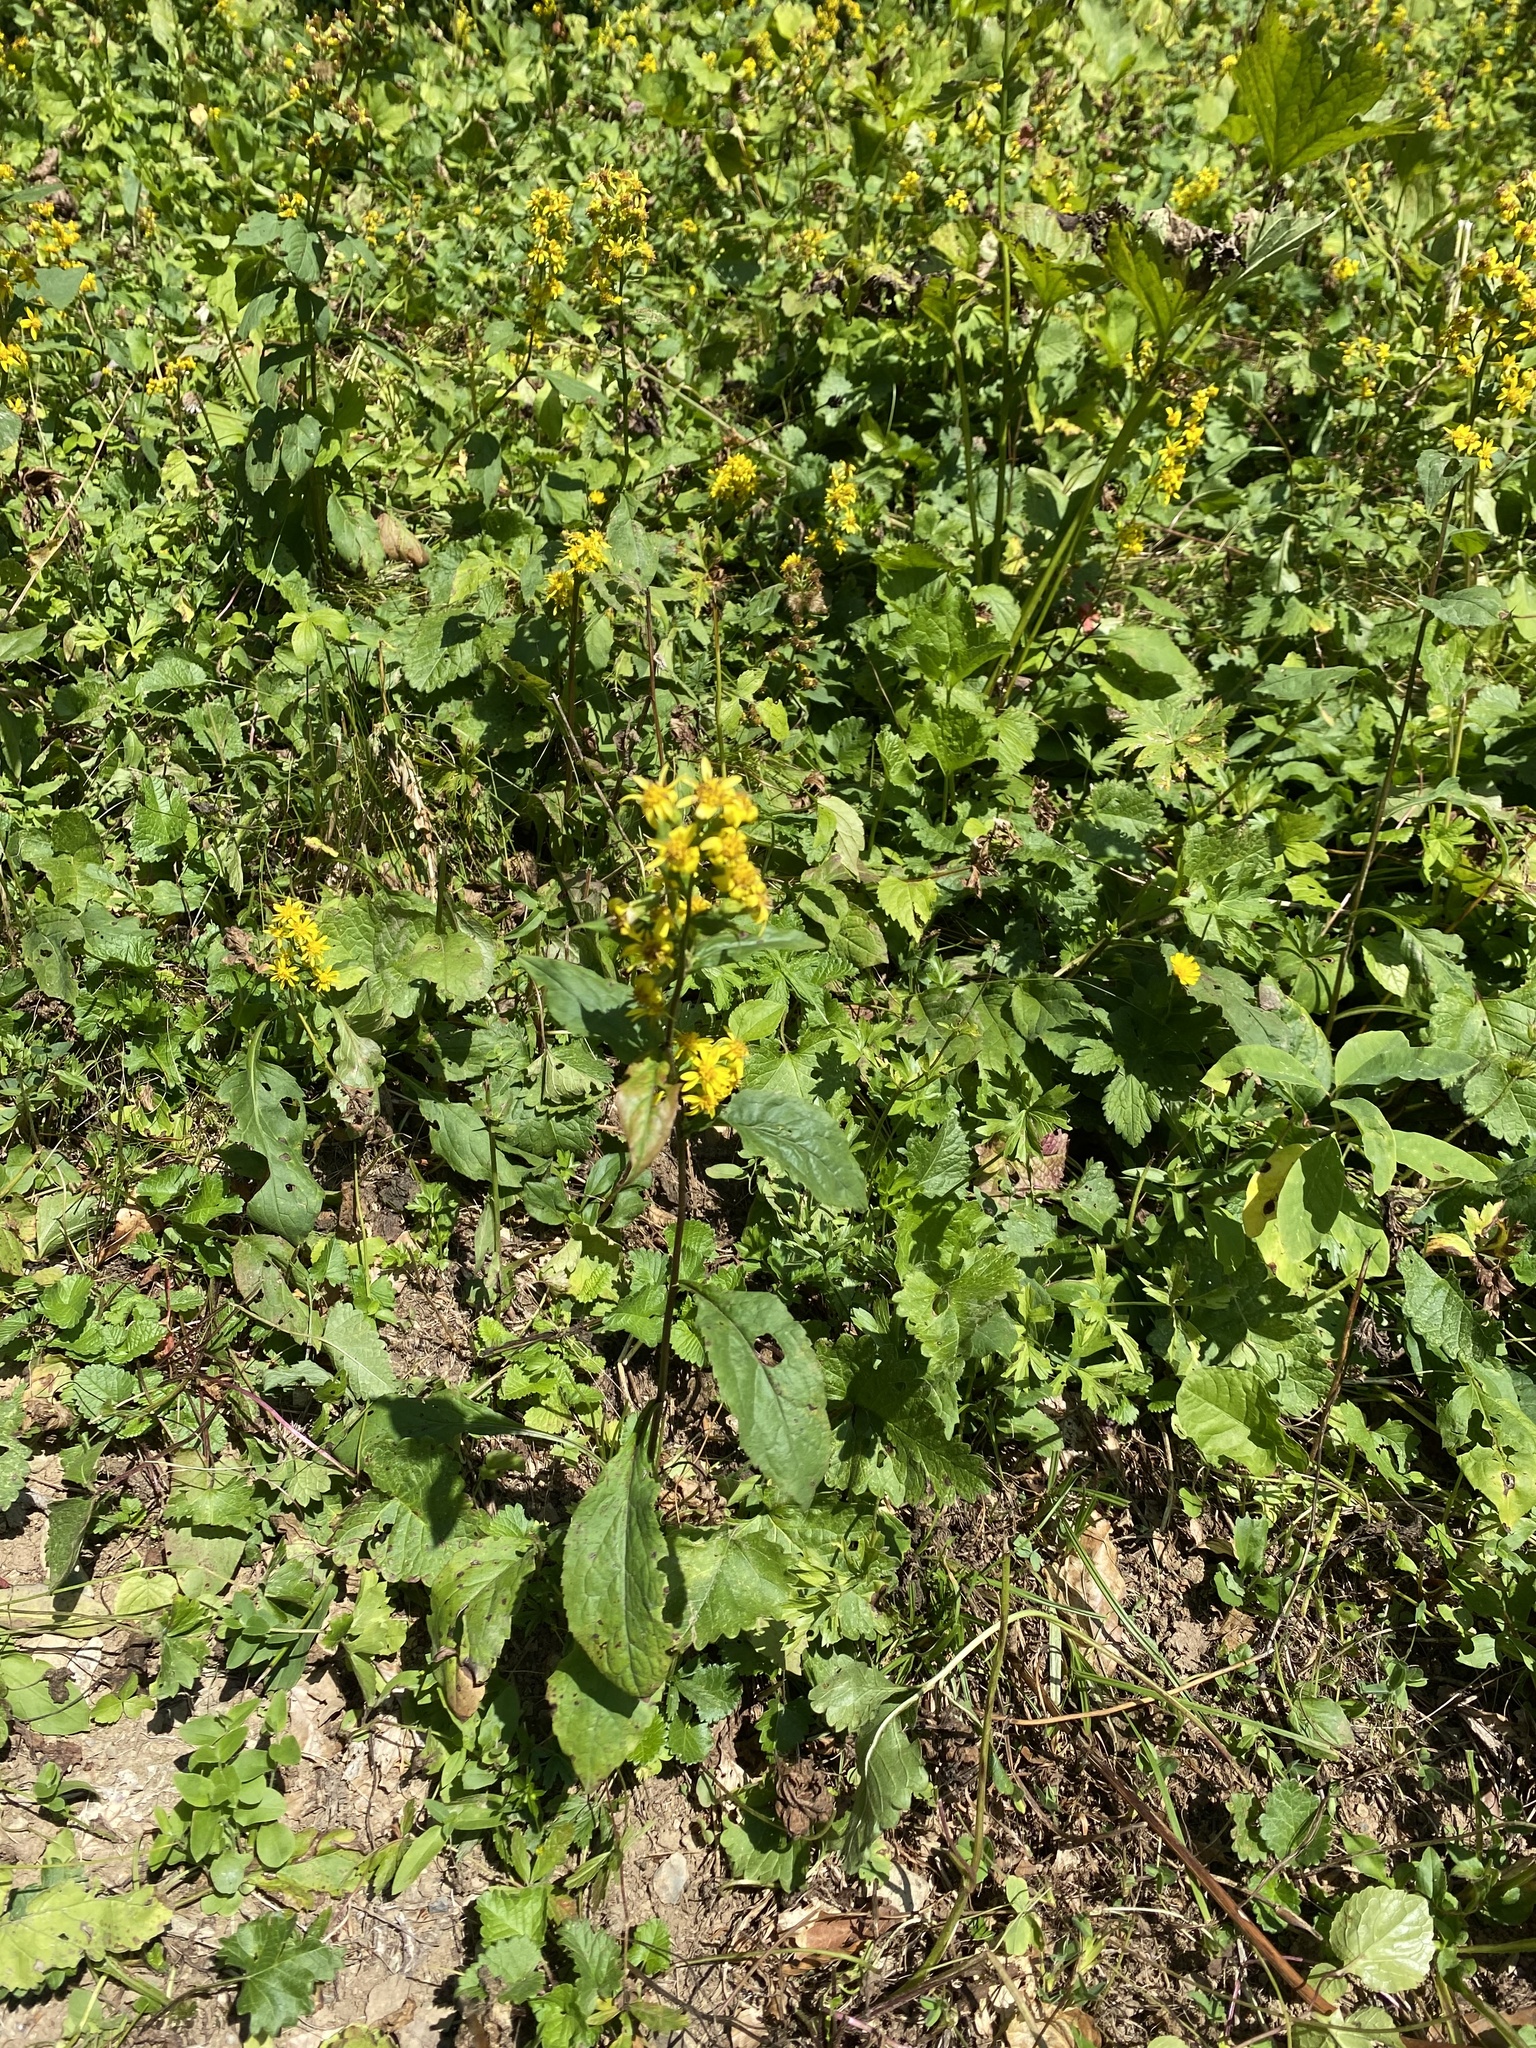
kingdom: Plantae
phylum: Tracheophyta
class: Magnoliopsida
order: Asterales
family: Asteraceae
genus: Solidago
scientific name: Solidago virgaurea
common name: Goldenrod
